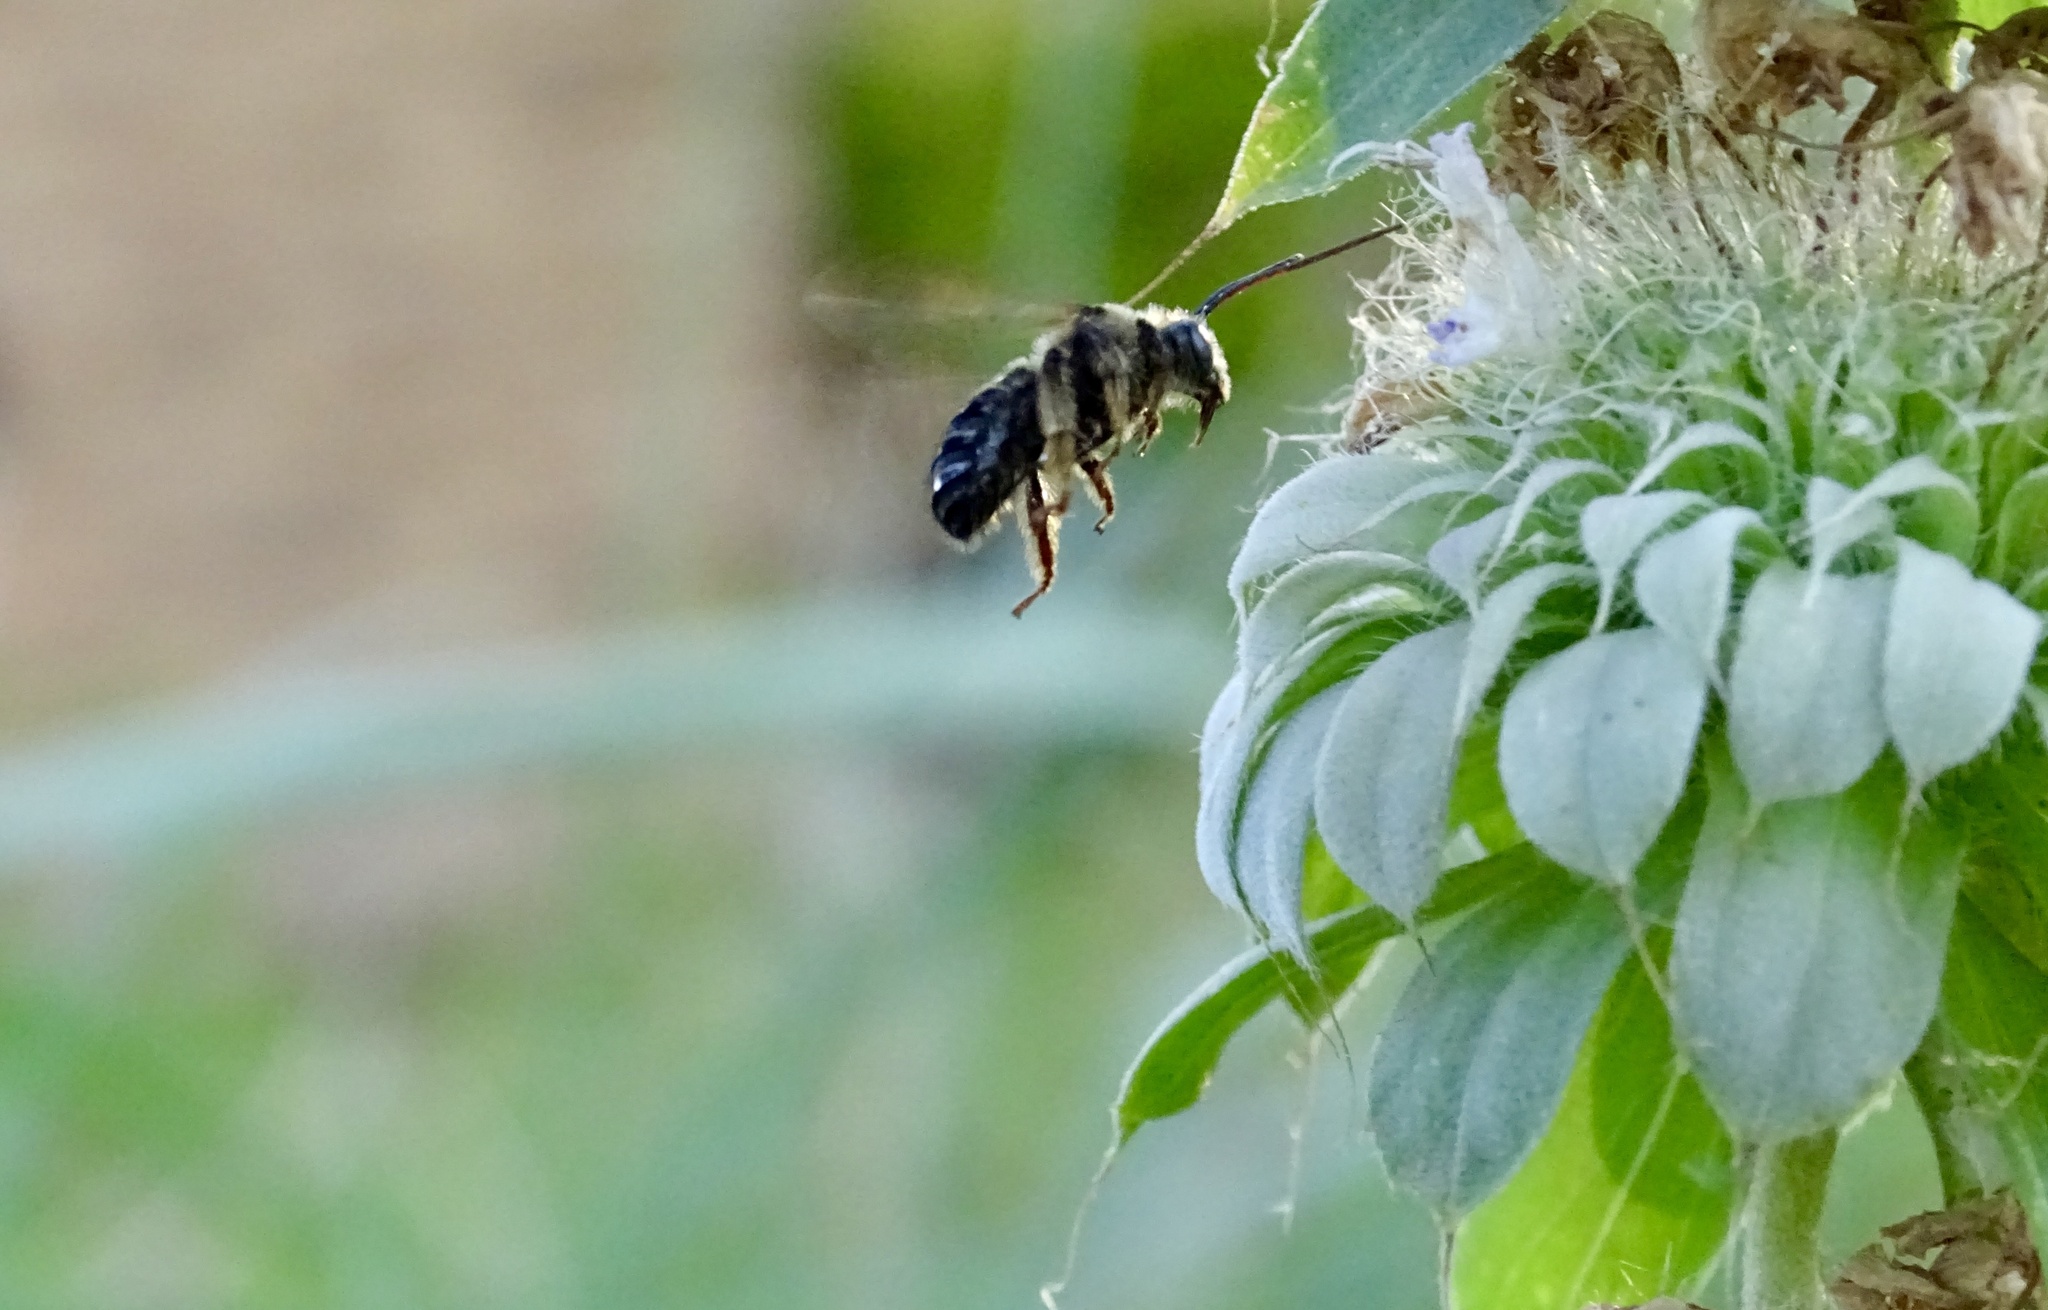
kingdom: Animalia
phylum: Arthropoda
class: Insecta
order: Hymenoptera
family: Apidae
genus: Melissodes
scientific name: Melissodes bimaculatus
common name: Two-spotted long-horned bee
